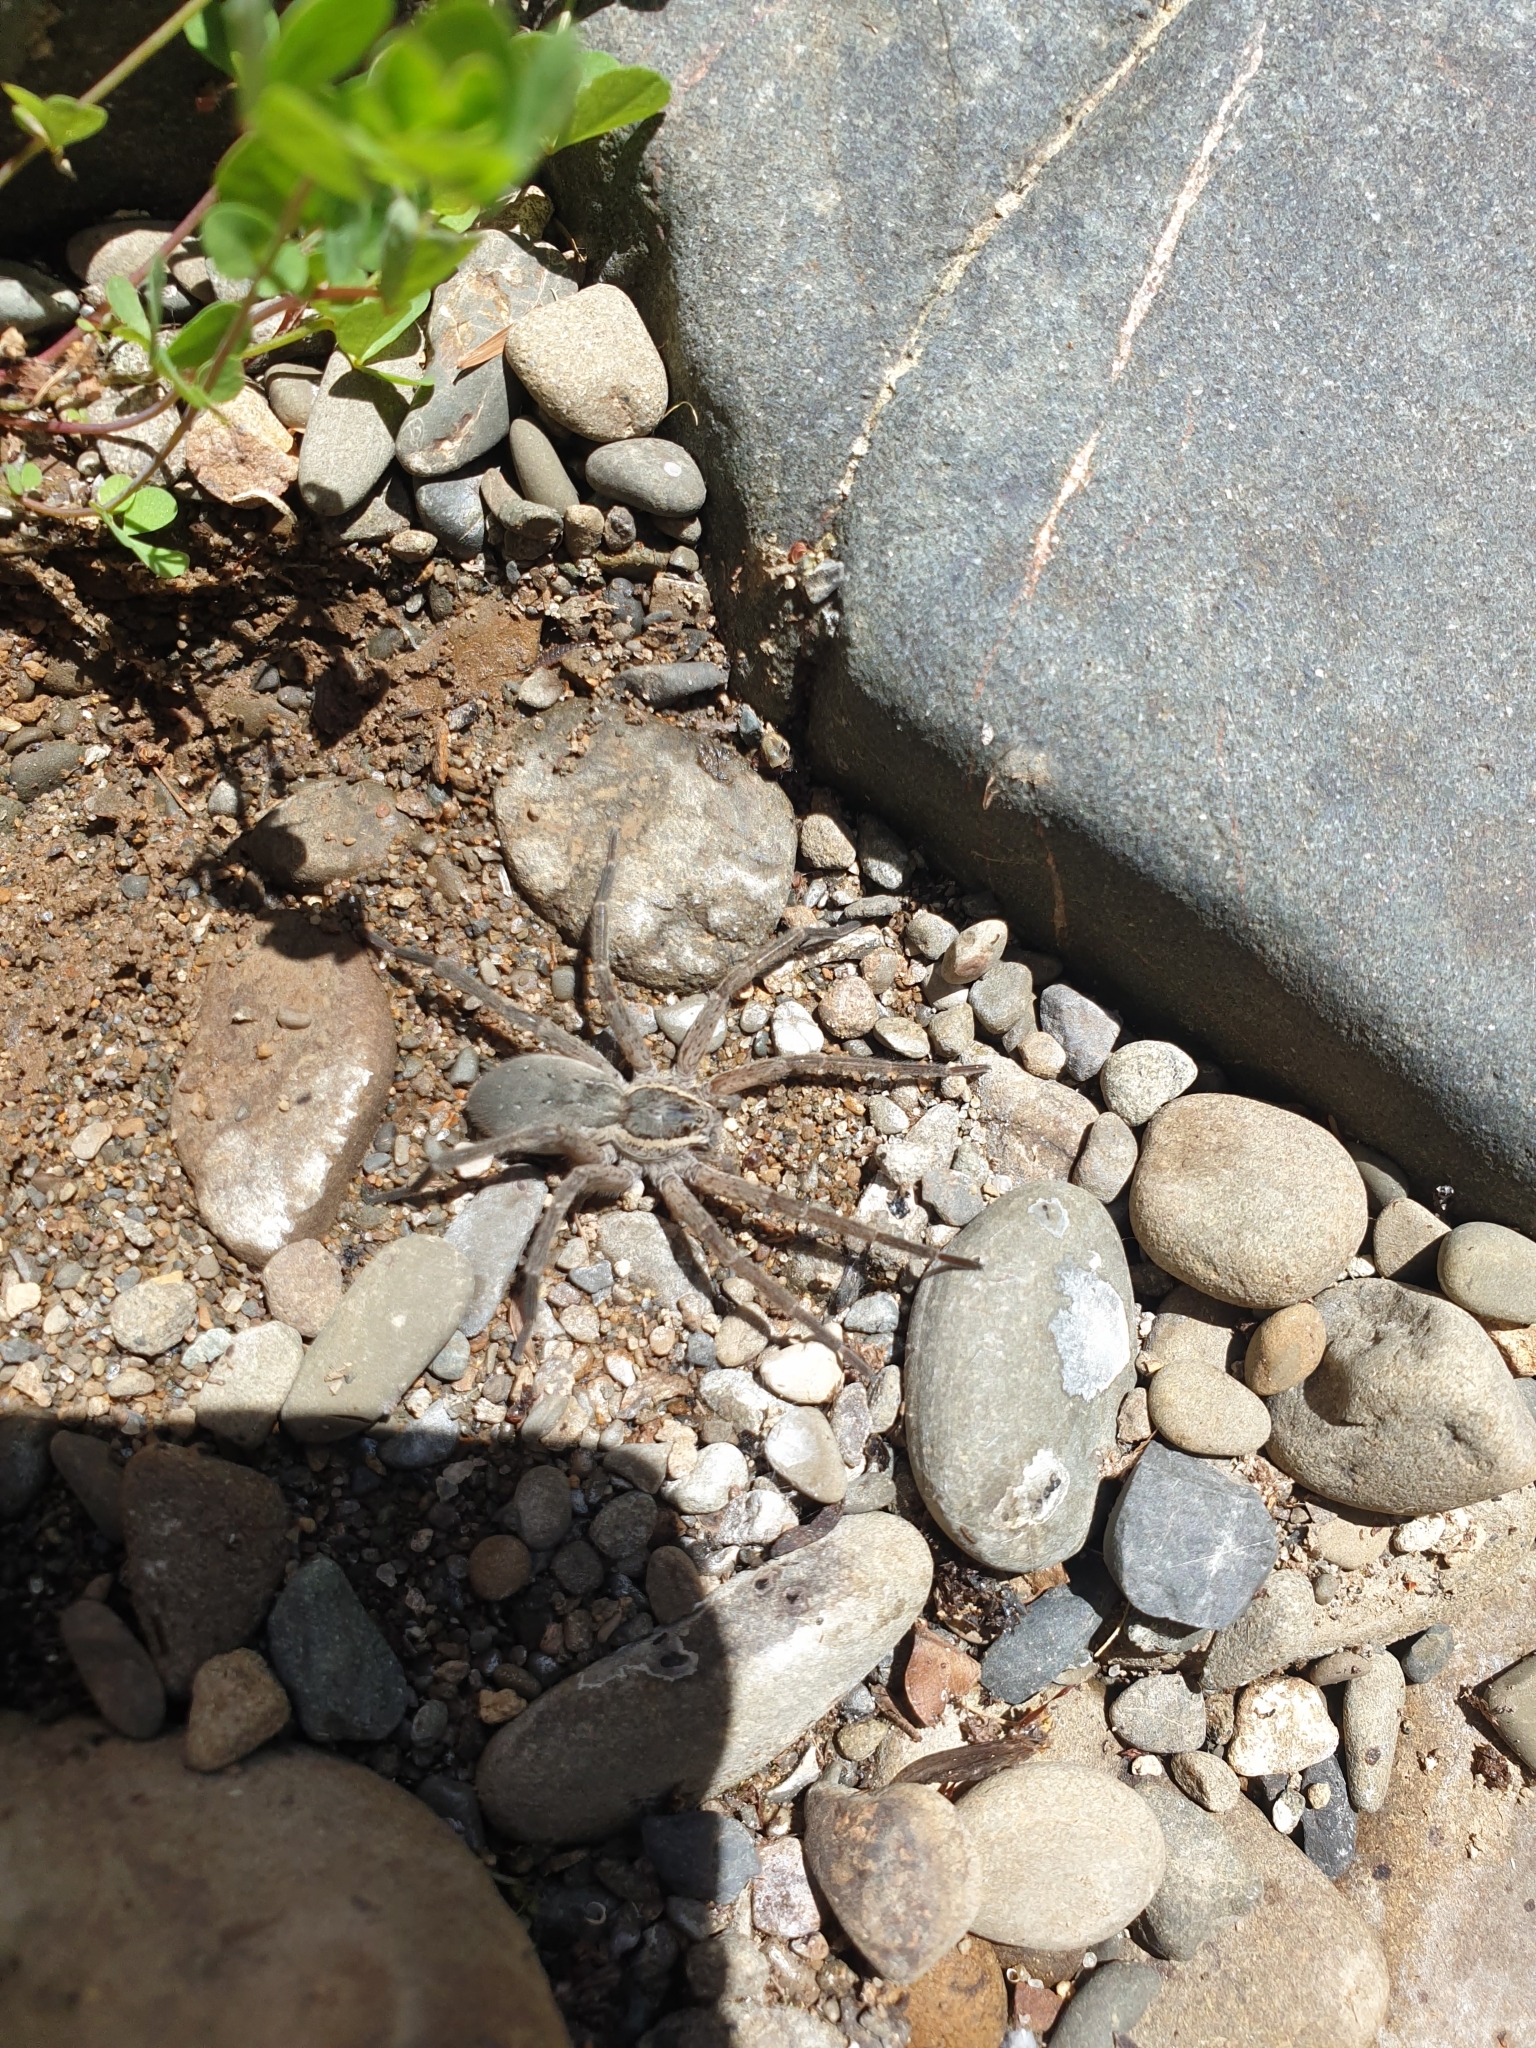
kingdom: Animalia
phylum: Arthropoda
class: Arachnida
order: Araneae
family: Pisauridae
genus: Dolomedes
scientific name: Dolomedes aquaticus
